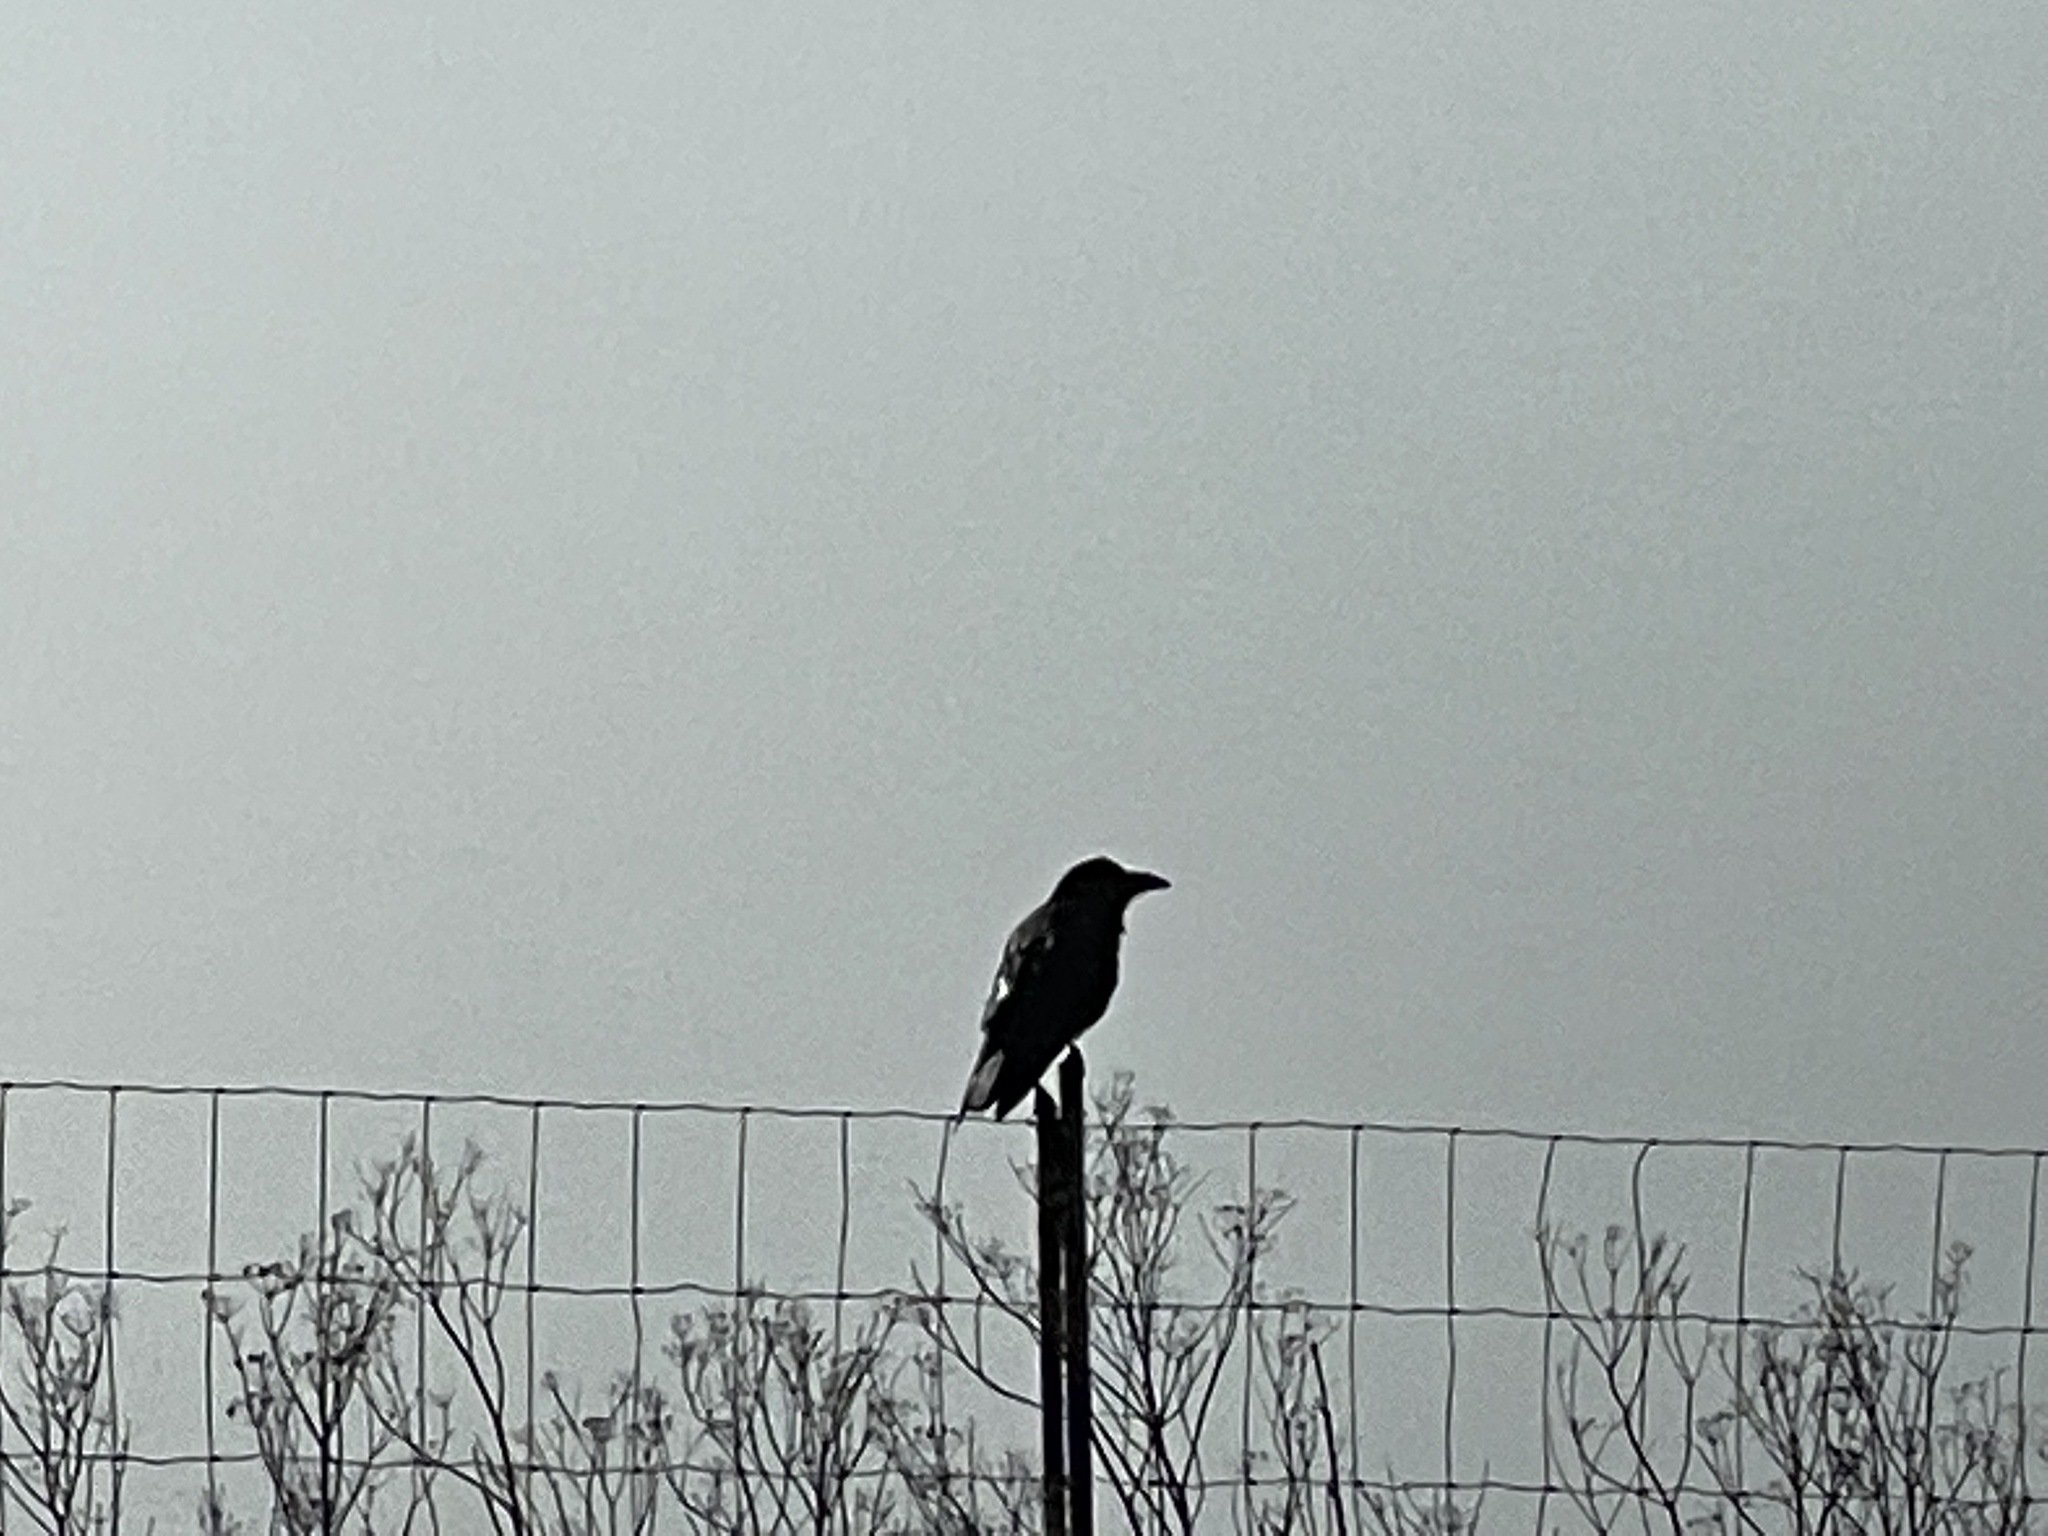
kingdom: Animalia
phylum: Chordata
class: Aves
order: Passeriformes
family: Corvidae
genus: Corvus
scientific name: Corvus corax
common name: Common raven
